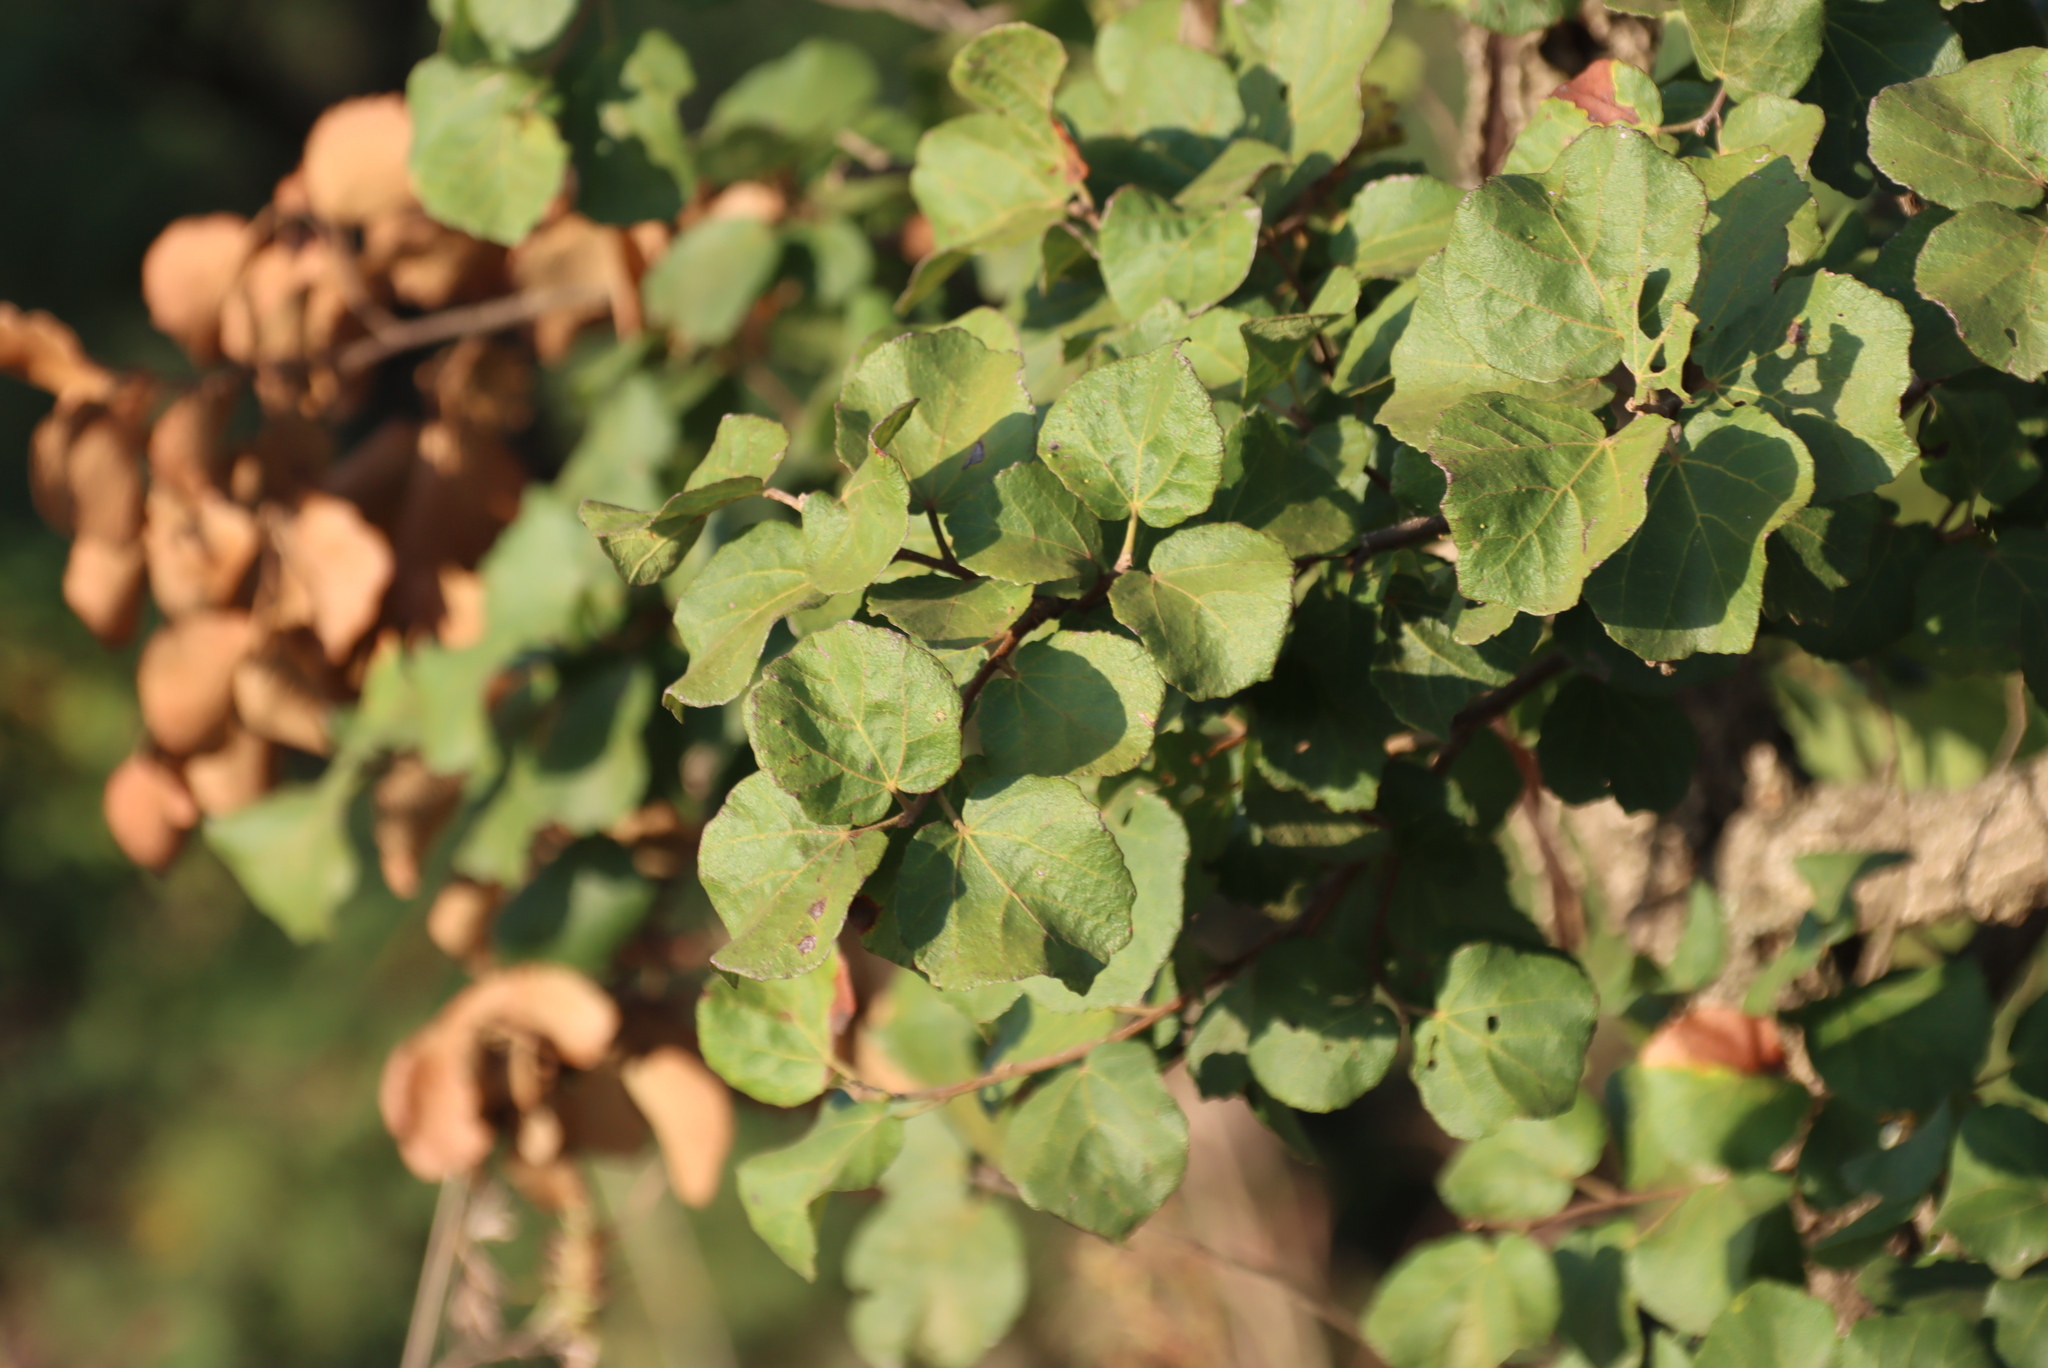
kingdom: Plantae
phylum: Tracheophyta
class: Magnoliopsida
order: Malvales
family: Malvaceae
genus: Dombeya
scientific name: Dombeya rotundifolia
